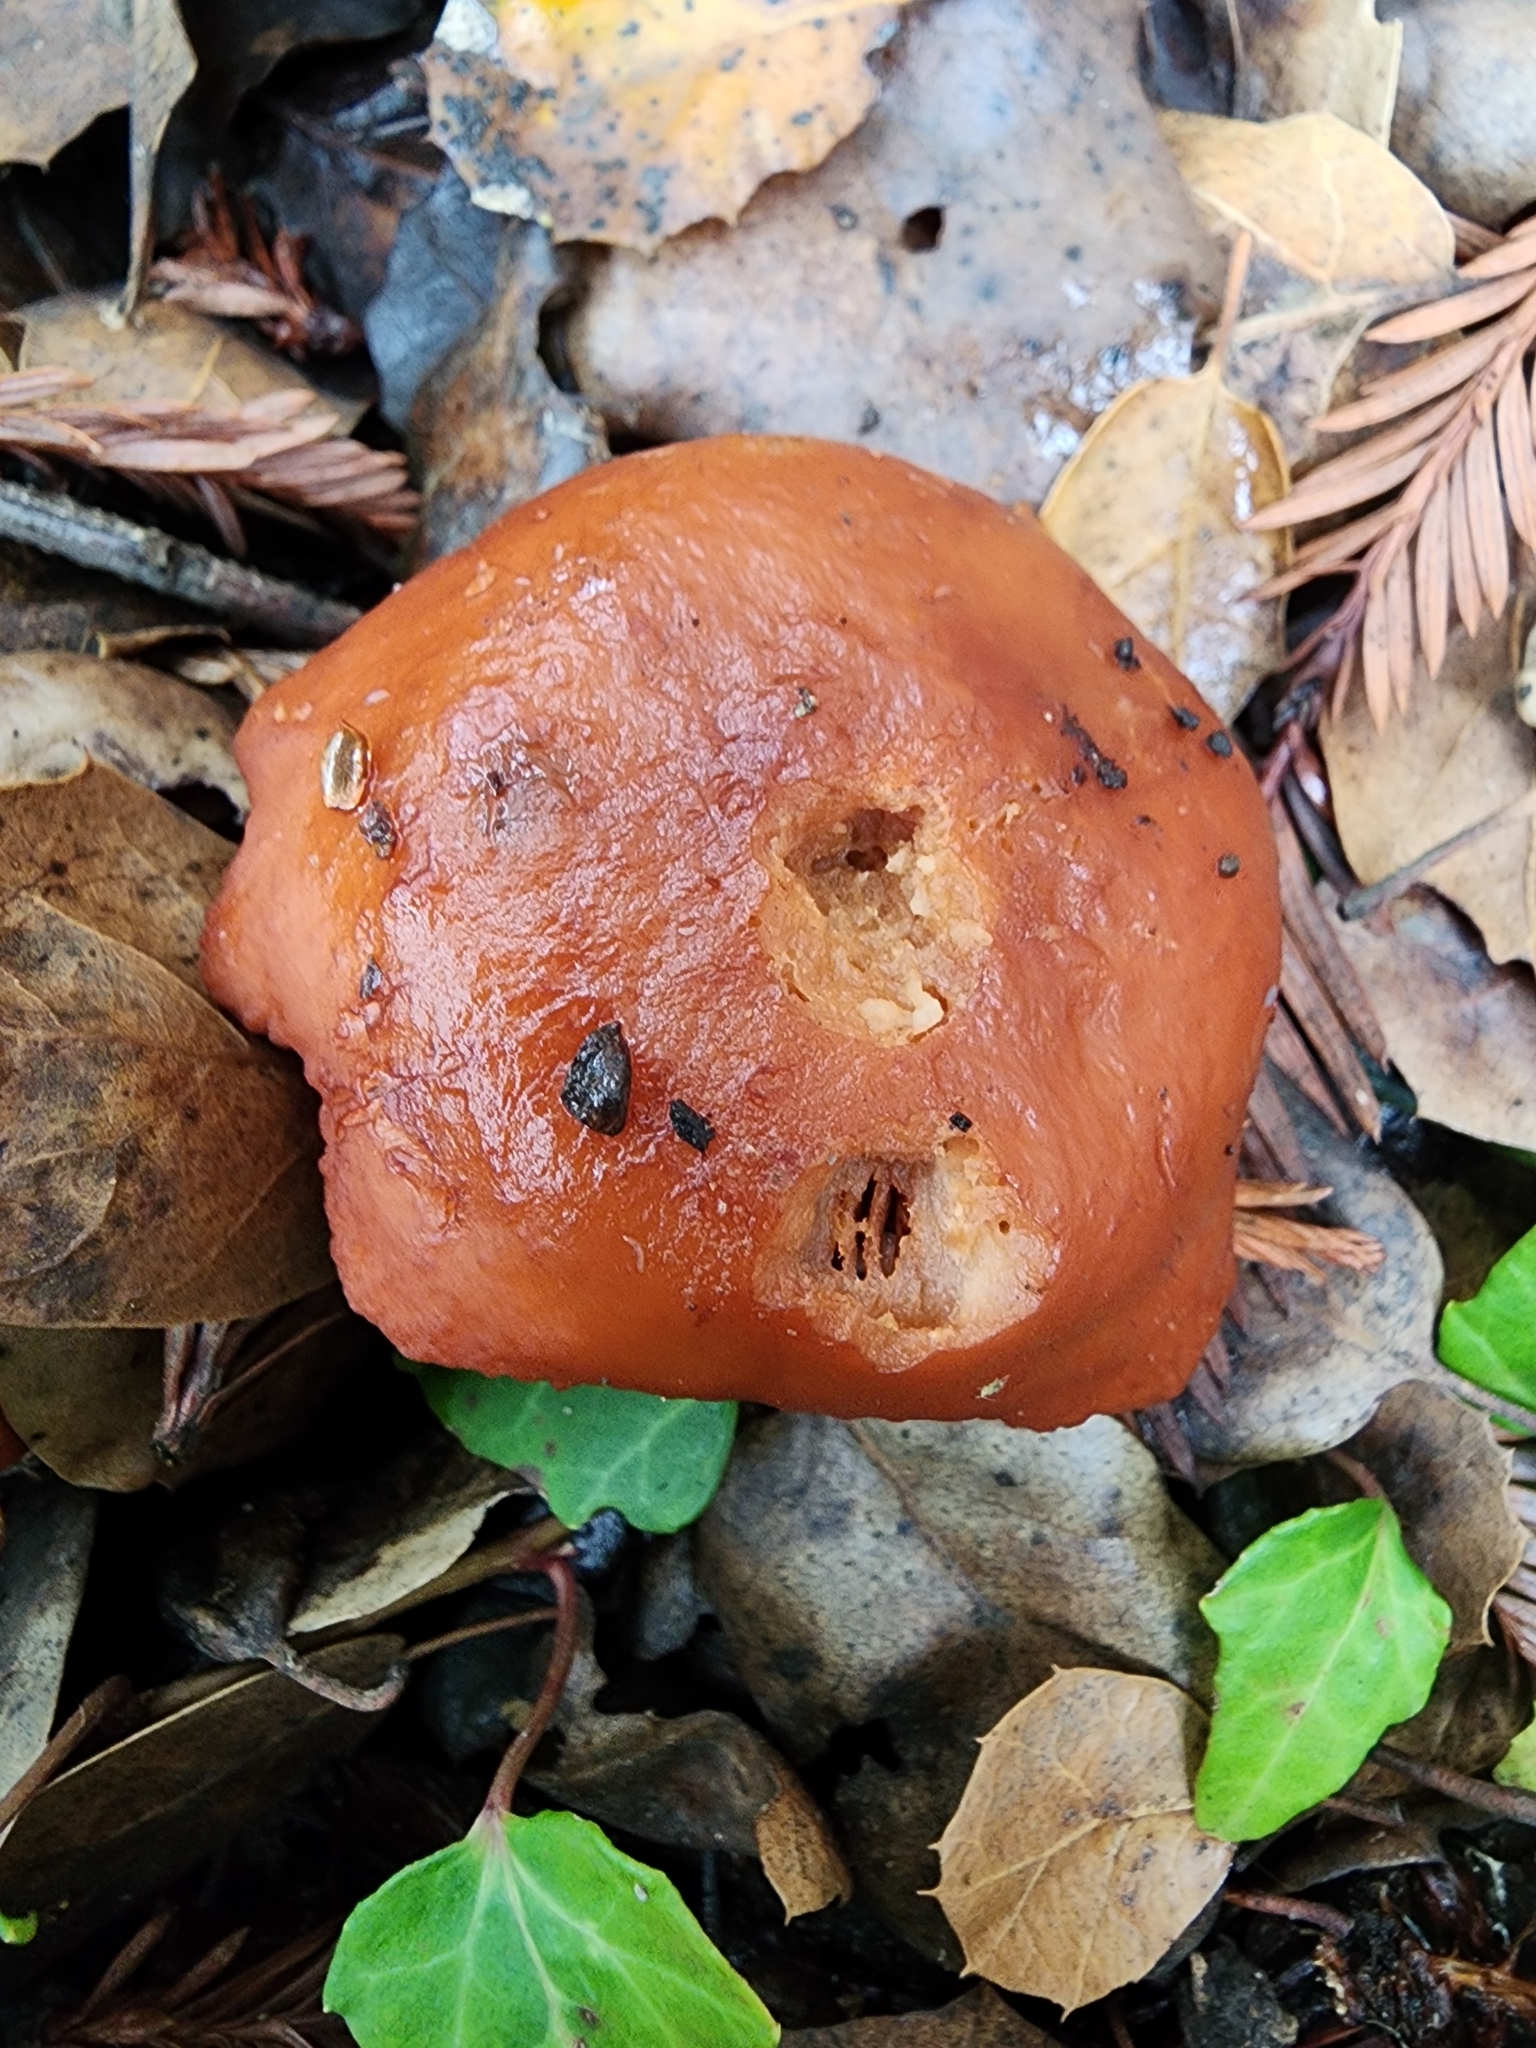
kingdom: Fungi
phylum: Basidiomycota
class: Agaricomycetes
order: Agaricales
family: Hymenogastraceae
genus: Gymnopilus
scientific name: Gymnopilus aurantiophyllus
